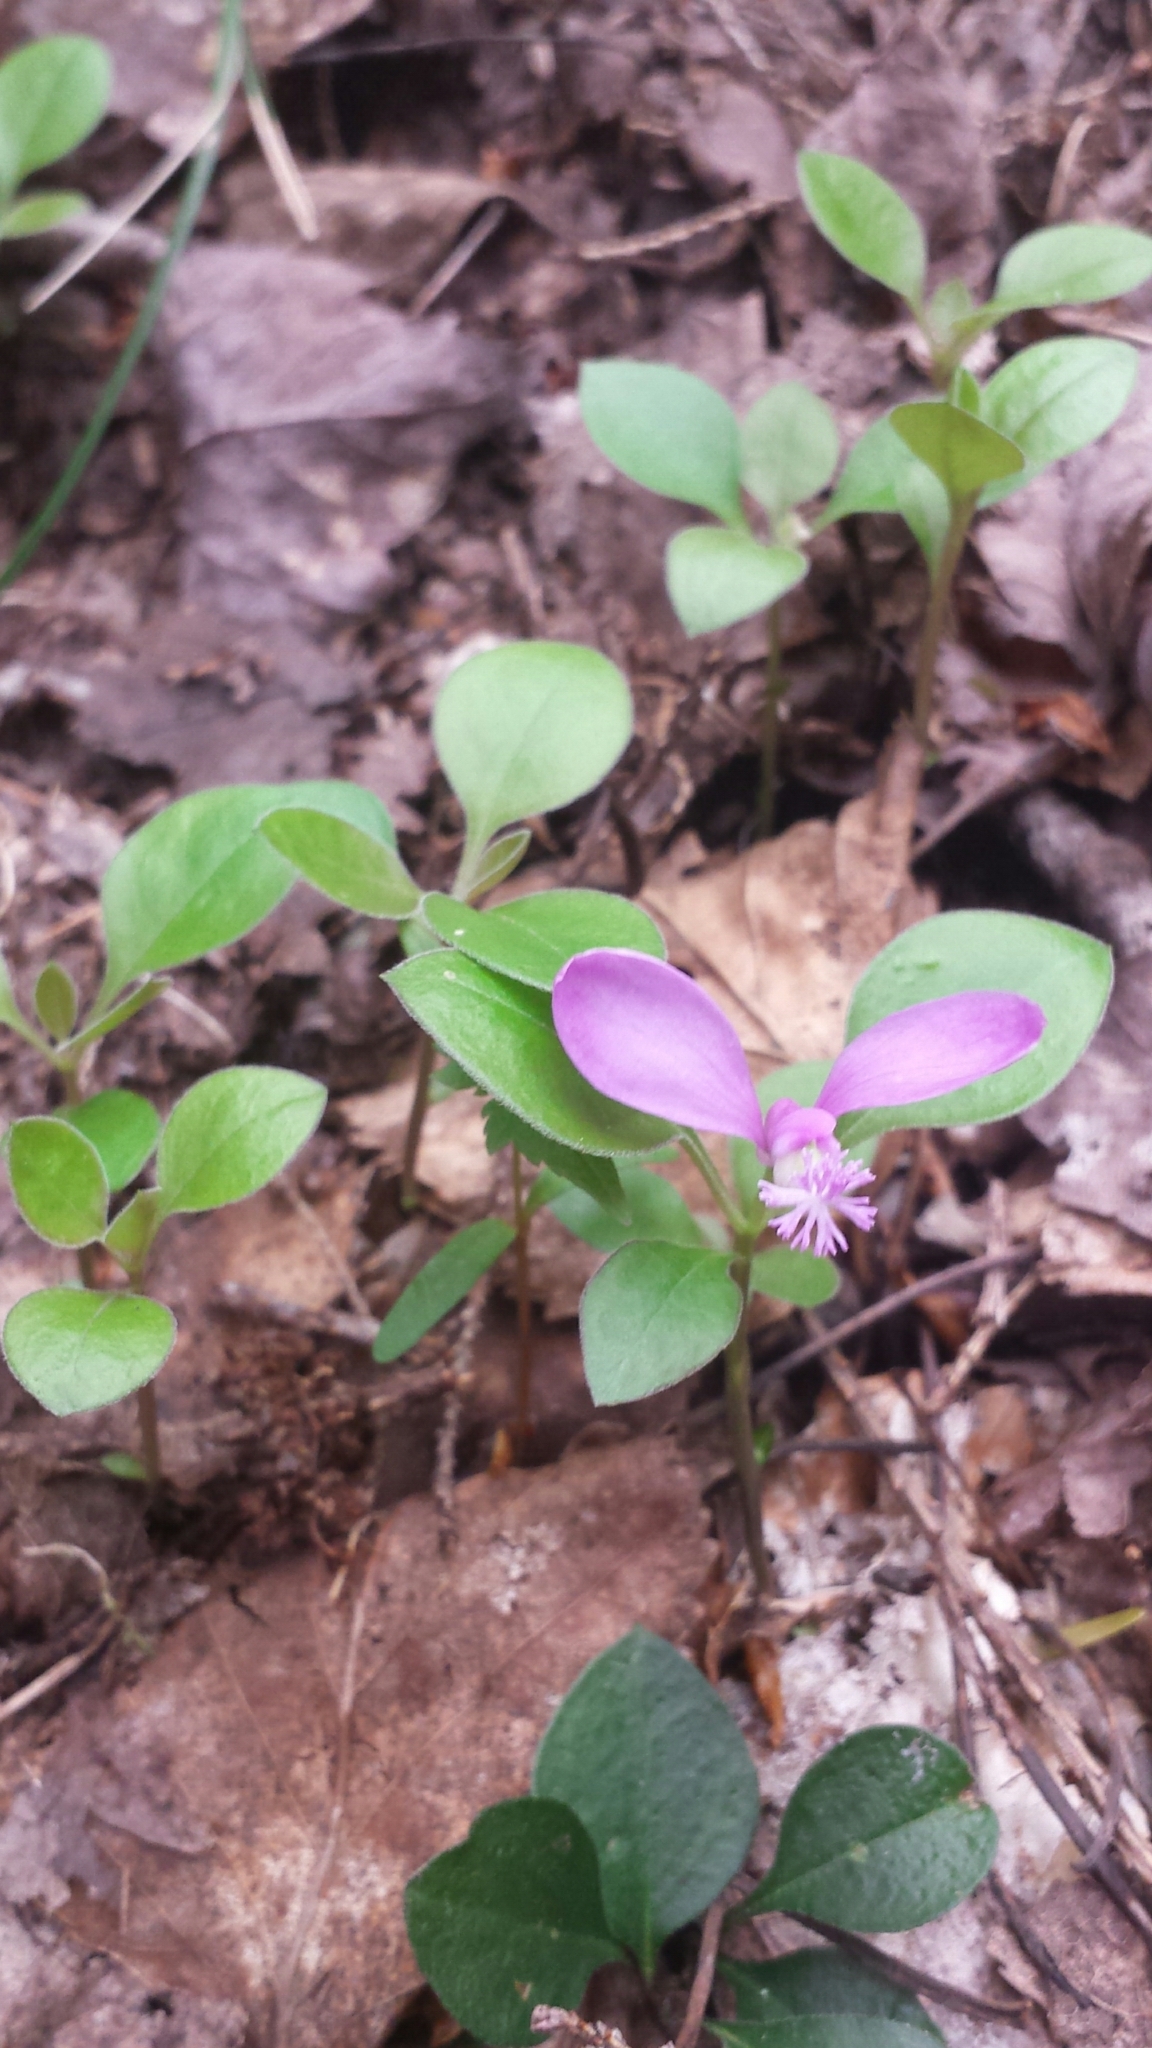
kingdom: Plantae
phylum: Tracheophyta
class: Magnoliopsida
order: Fabales
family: Polygalaceae
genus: Polygaloides
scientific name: Polygaloides paucifolia
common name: Bird-on-the-wing
